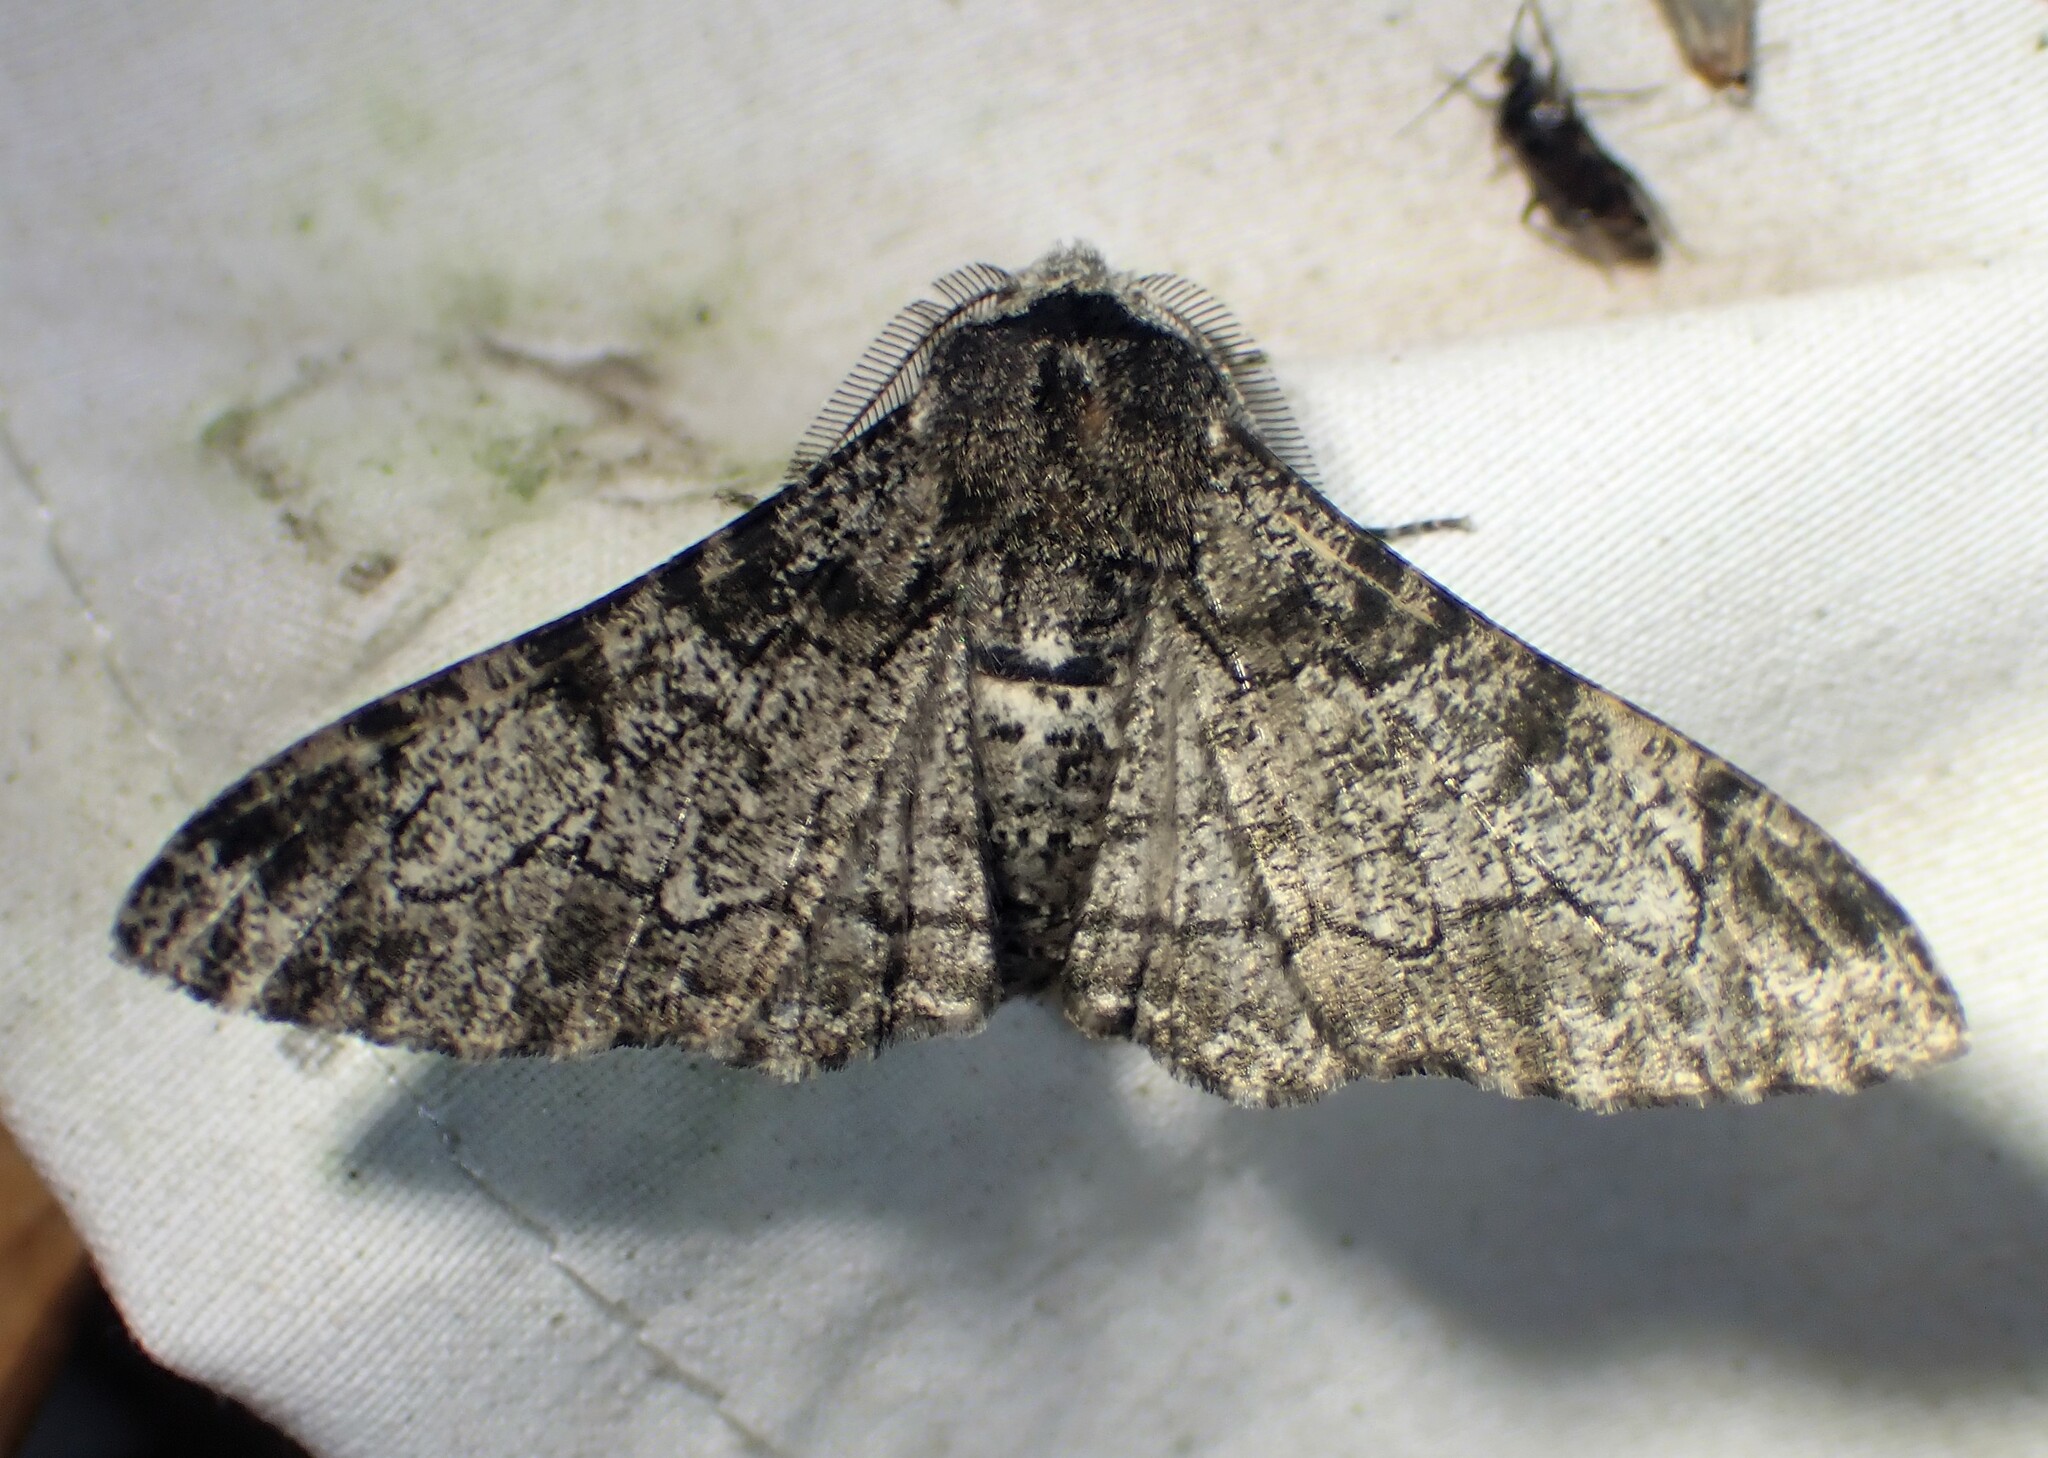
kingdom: Animalia
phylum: Arthropoda
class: Insecta
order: Lepidoptera
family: Geometridae
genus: Biston
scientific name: Biston betularia
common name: Peppered moth
